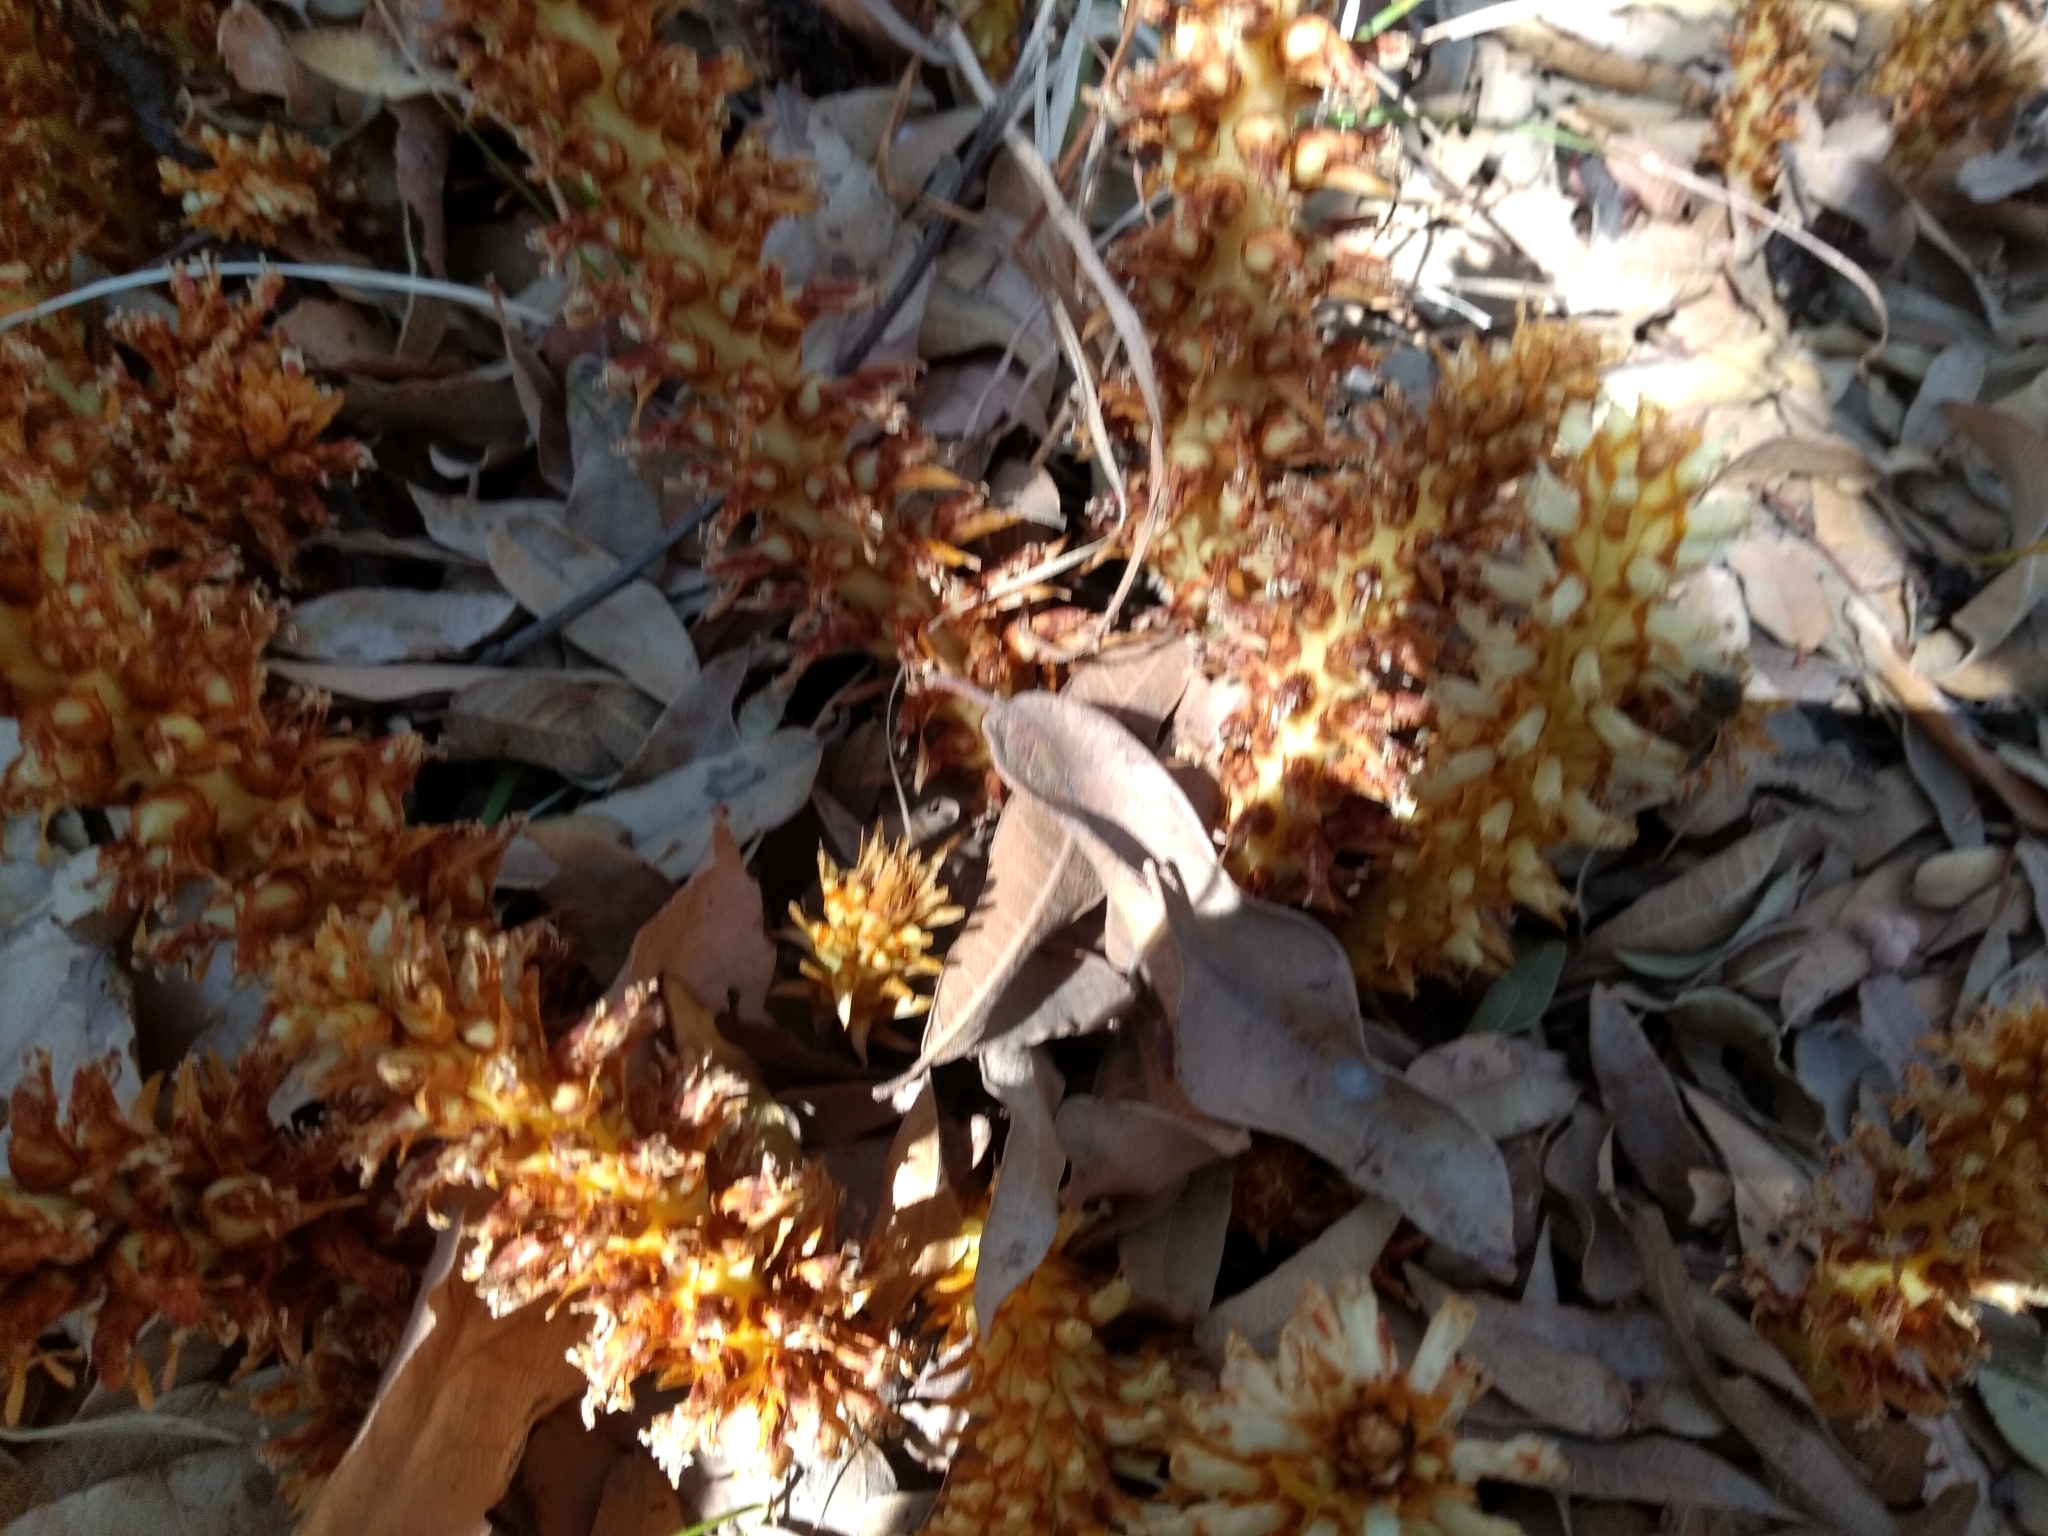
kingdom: Plantae
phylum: Tracheophyta
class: Magnoliopsida
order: Lamiales
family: Orobanchaceae
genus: Conopholis
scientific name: Conopholis alpina
